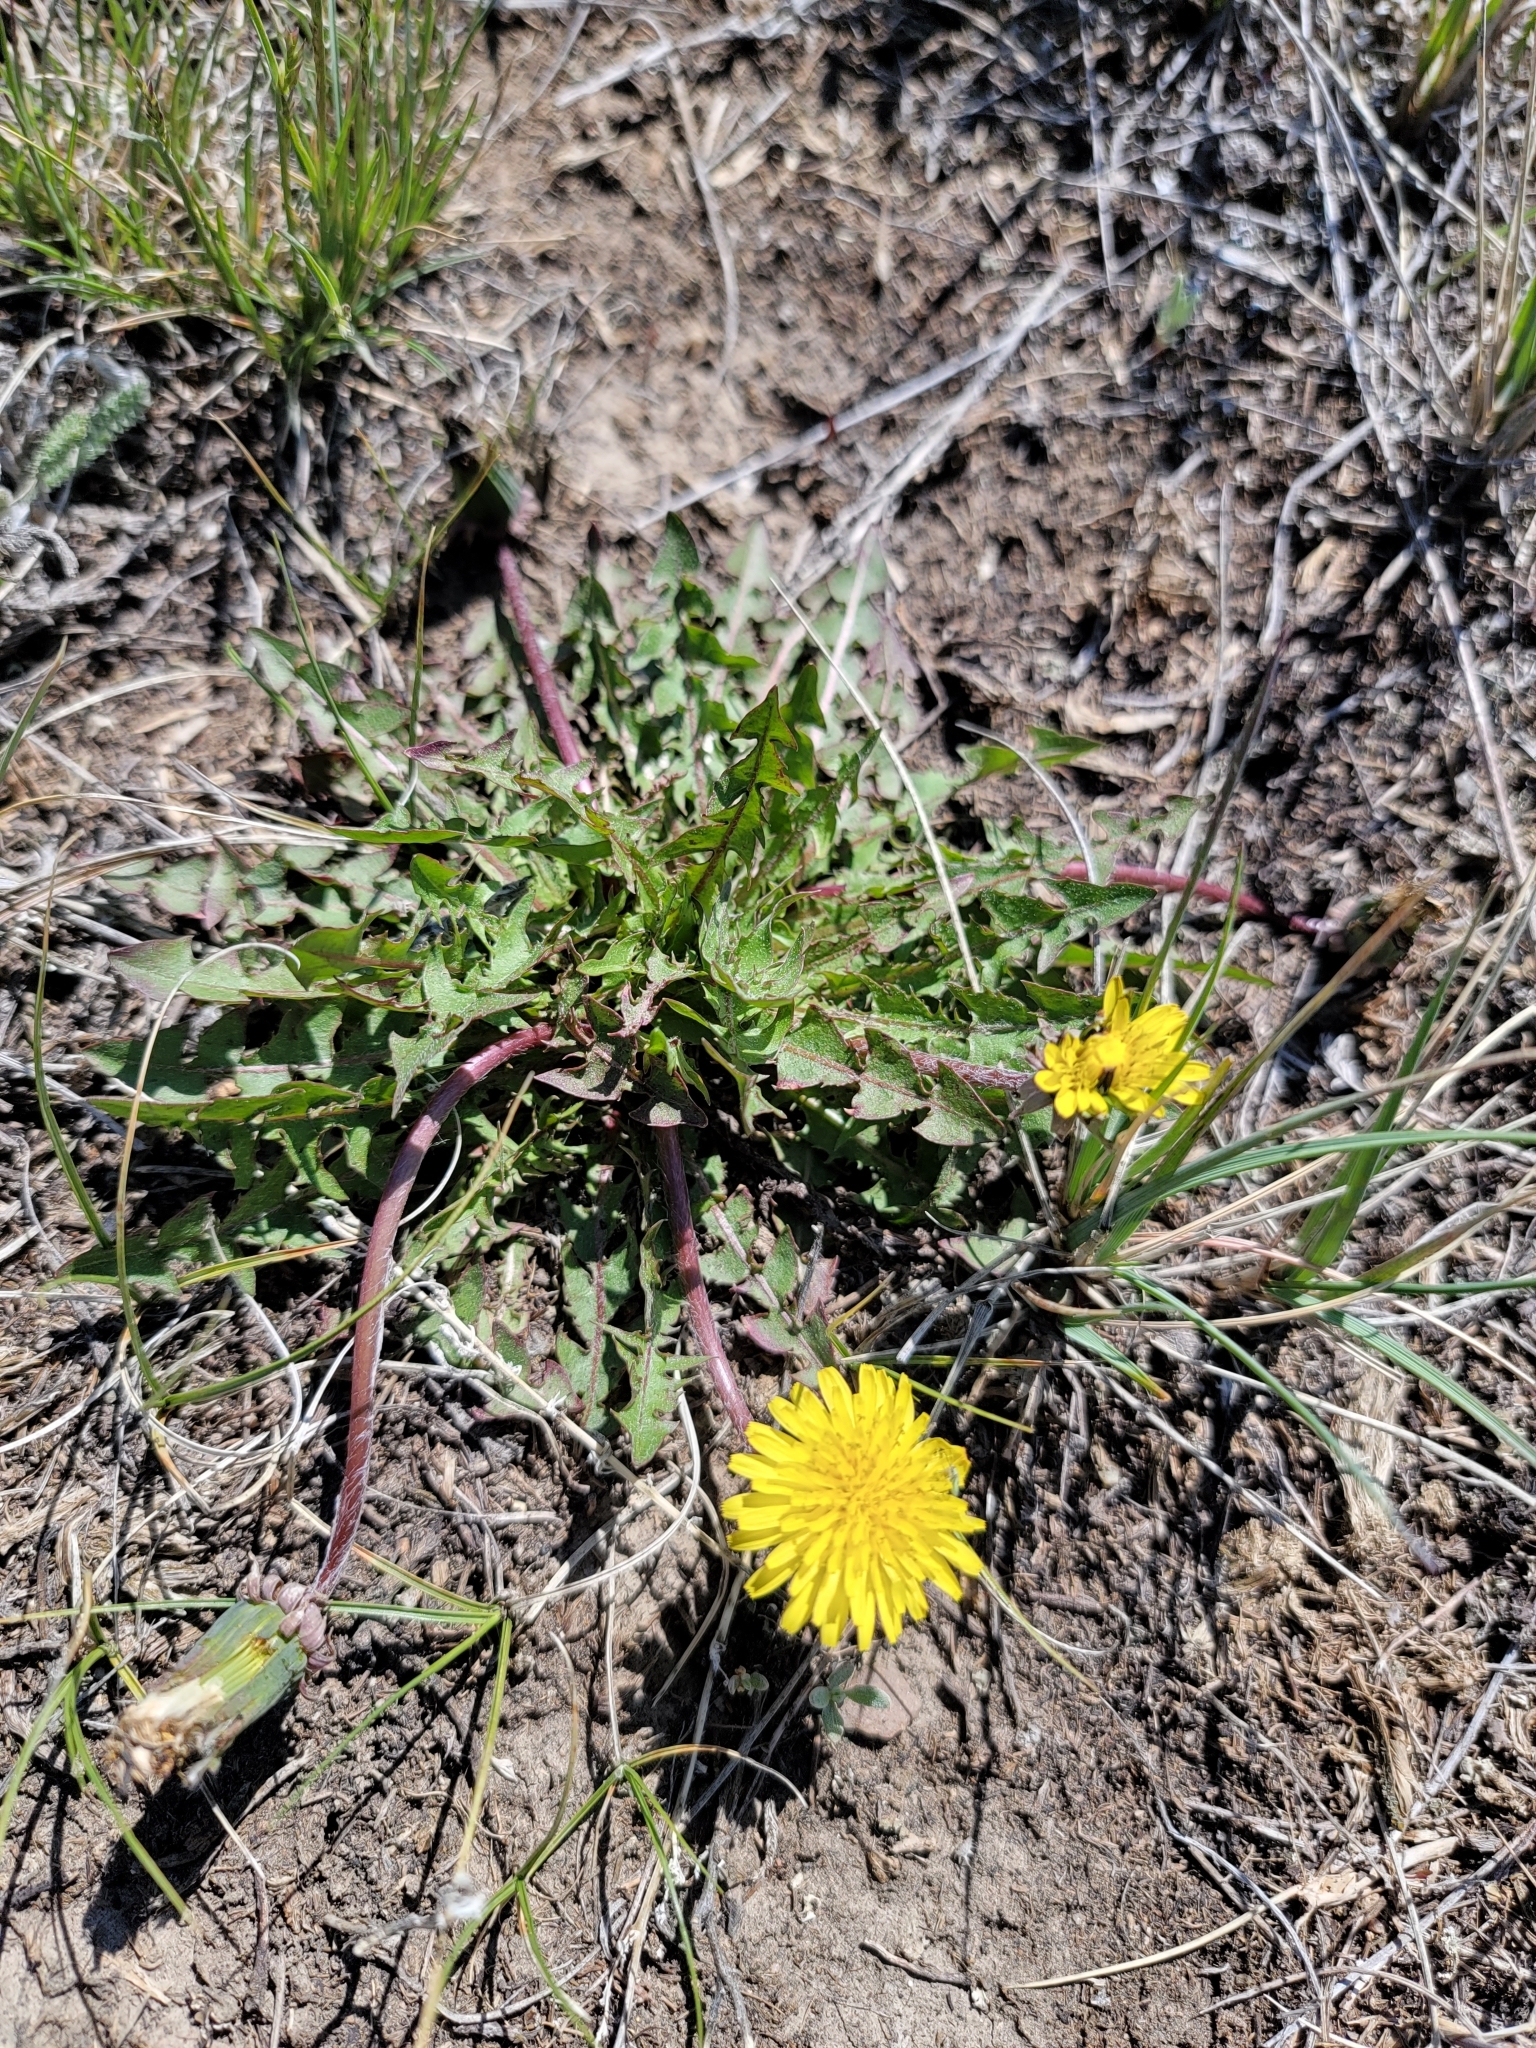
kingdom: Plantae
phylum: Tracheophyta
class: Magnoliopsida
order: Asterales
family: Asteraceae
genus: Taraxacum
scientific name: Taraxacum officinale
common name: Common dandelion
